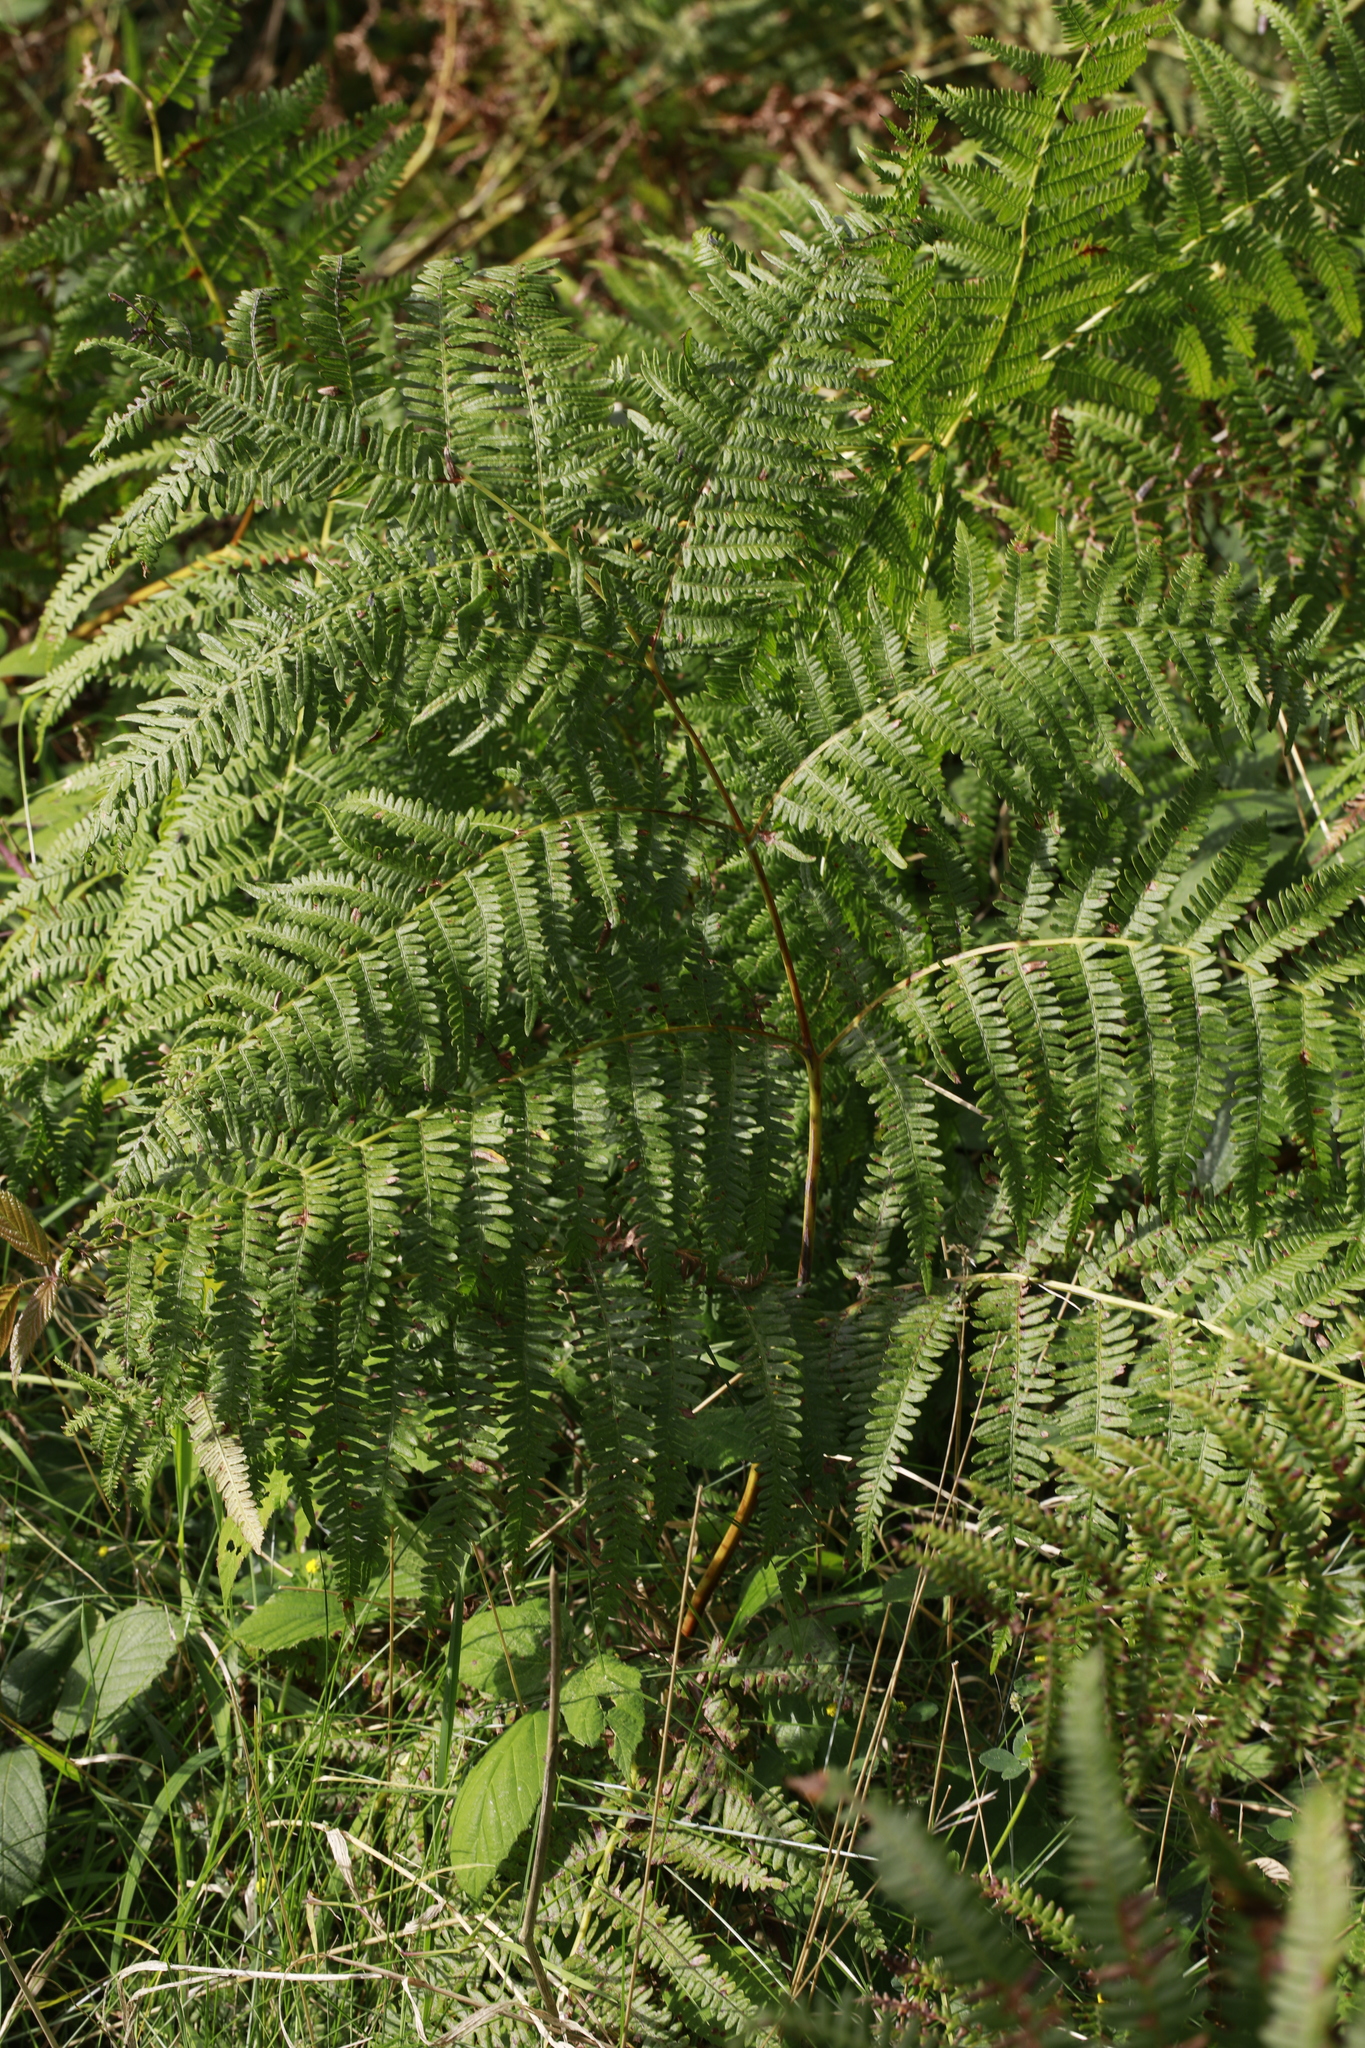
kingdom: Plantae
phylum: Tracheophyta
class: Polypodiopsida
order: Polypodiales
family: Dennstaedtiaceae
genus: Pteridium
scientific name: Pteridium aquilinum
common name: Bracken
